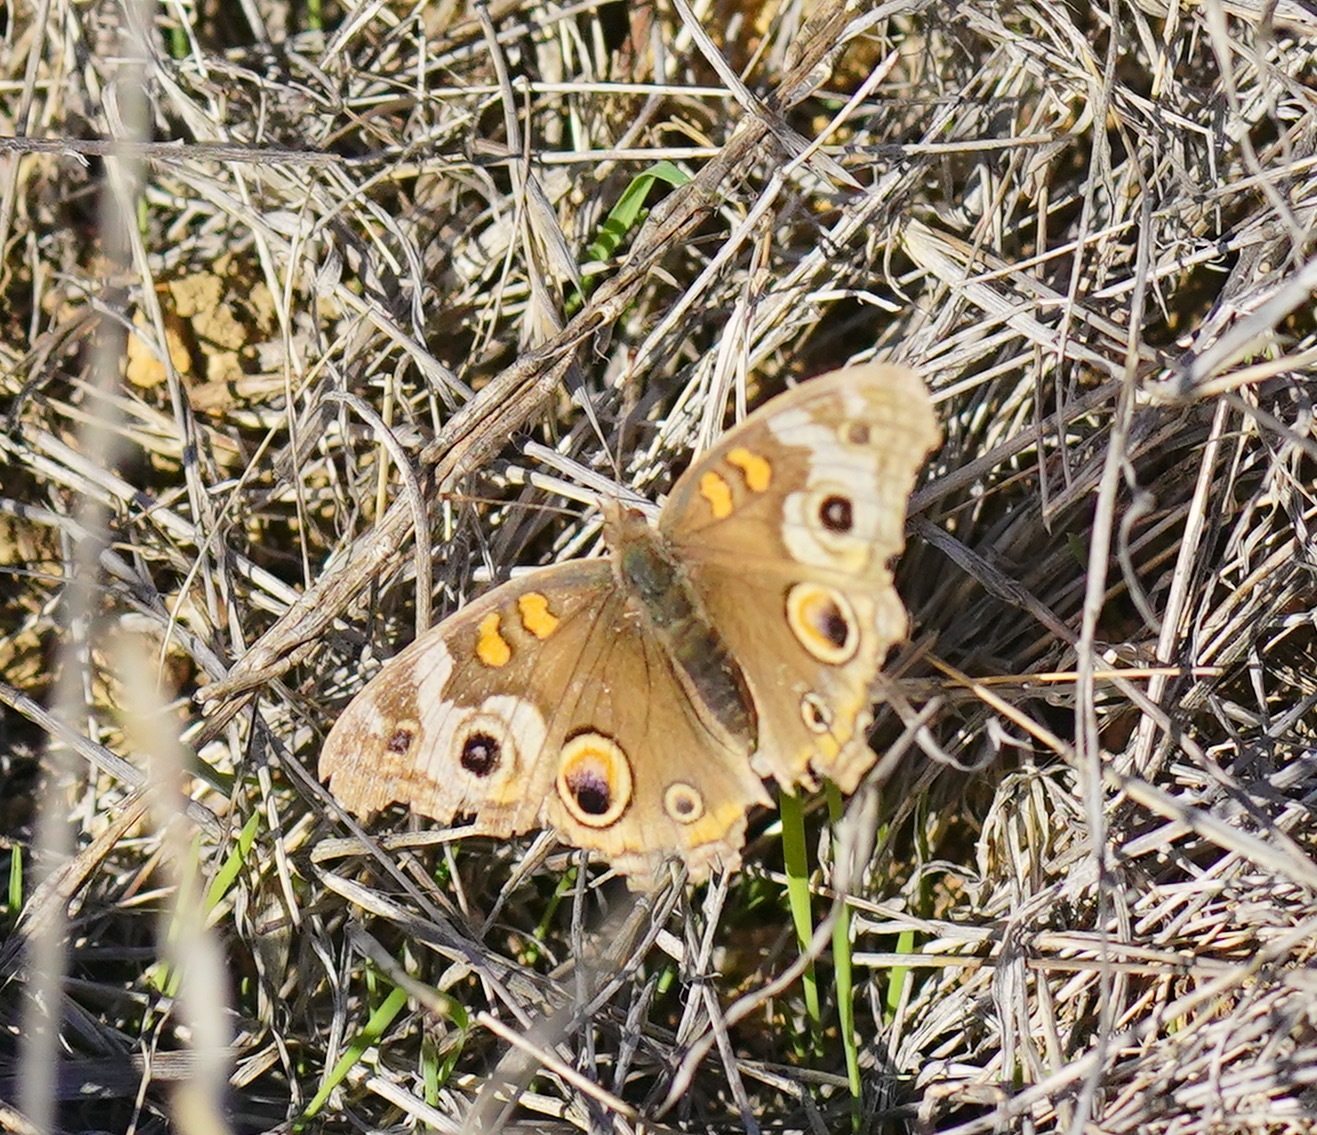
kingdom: Animalia
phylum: Arthropoda
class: Insecta
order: Lepidoptera
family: Nymphalidae
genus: Junonia
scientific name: Junonia grisea
